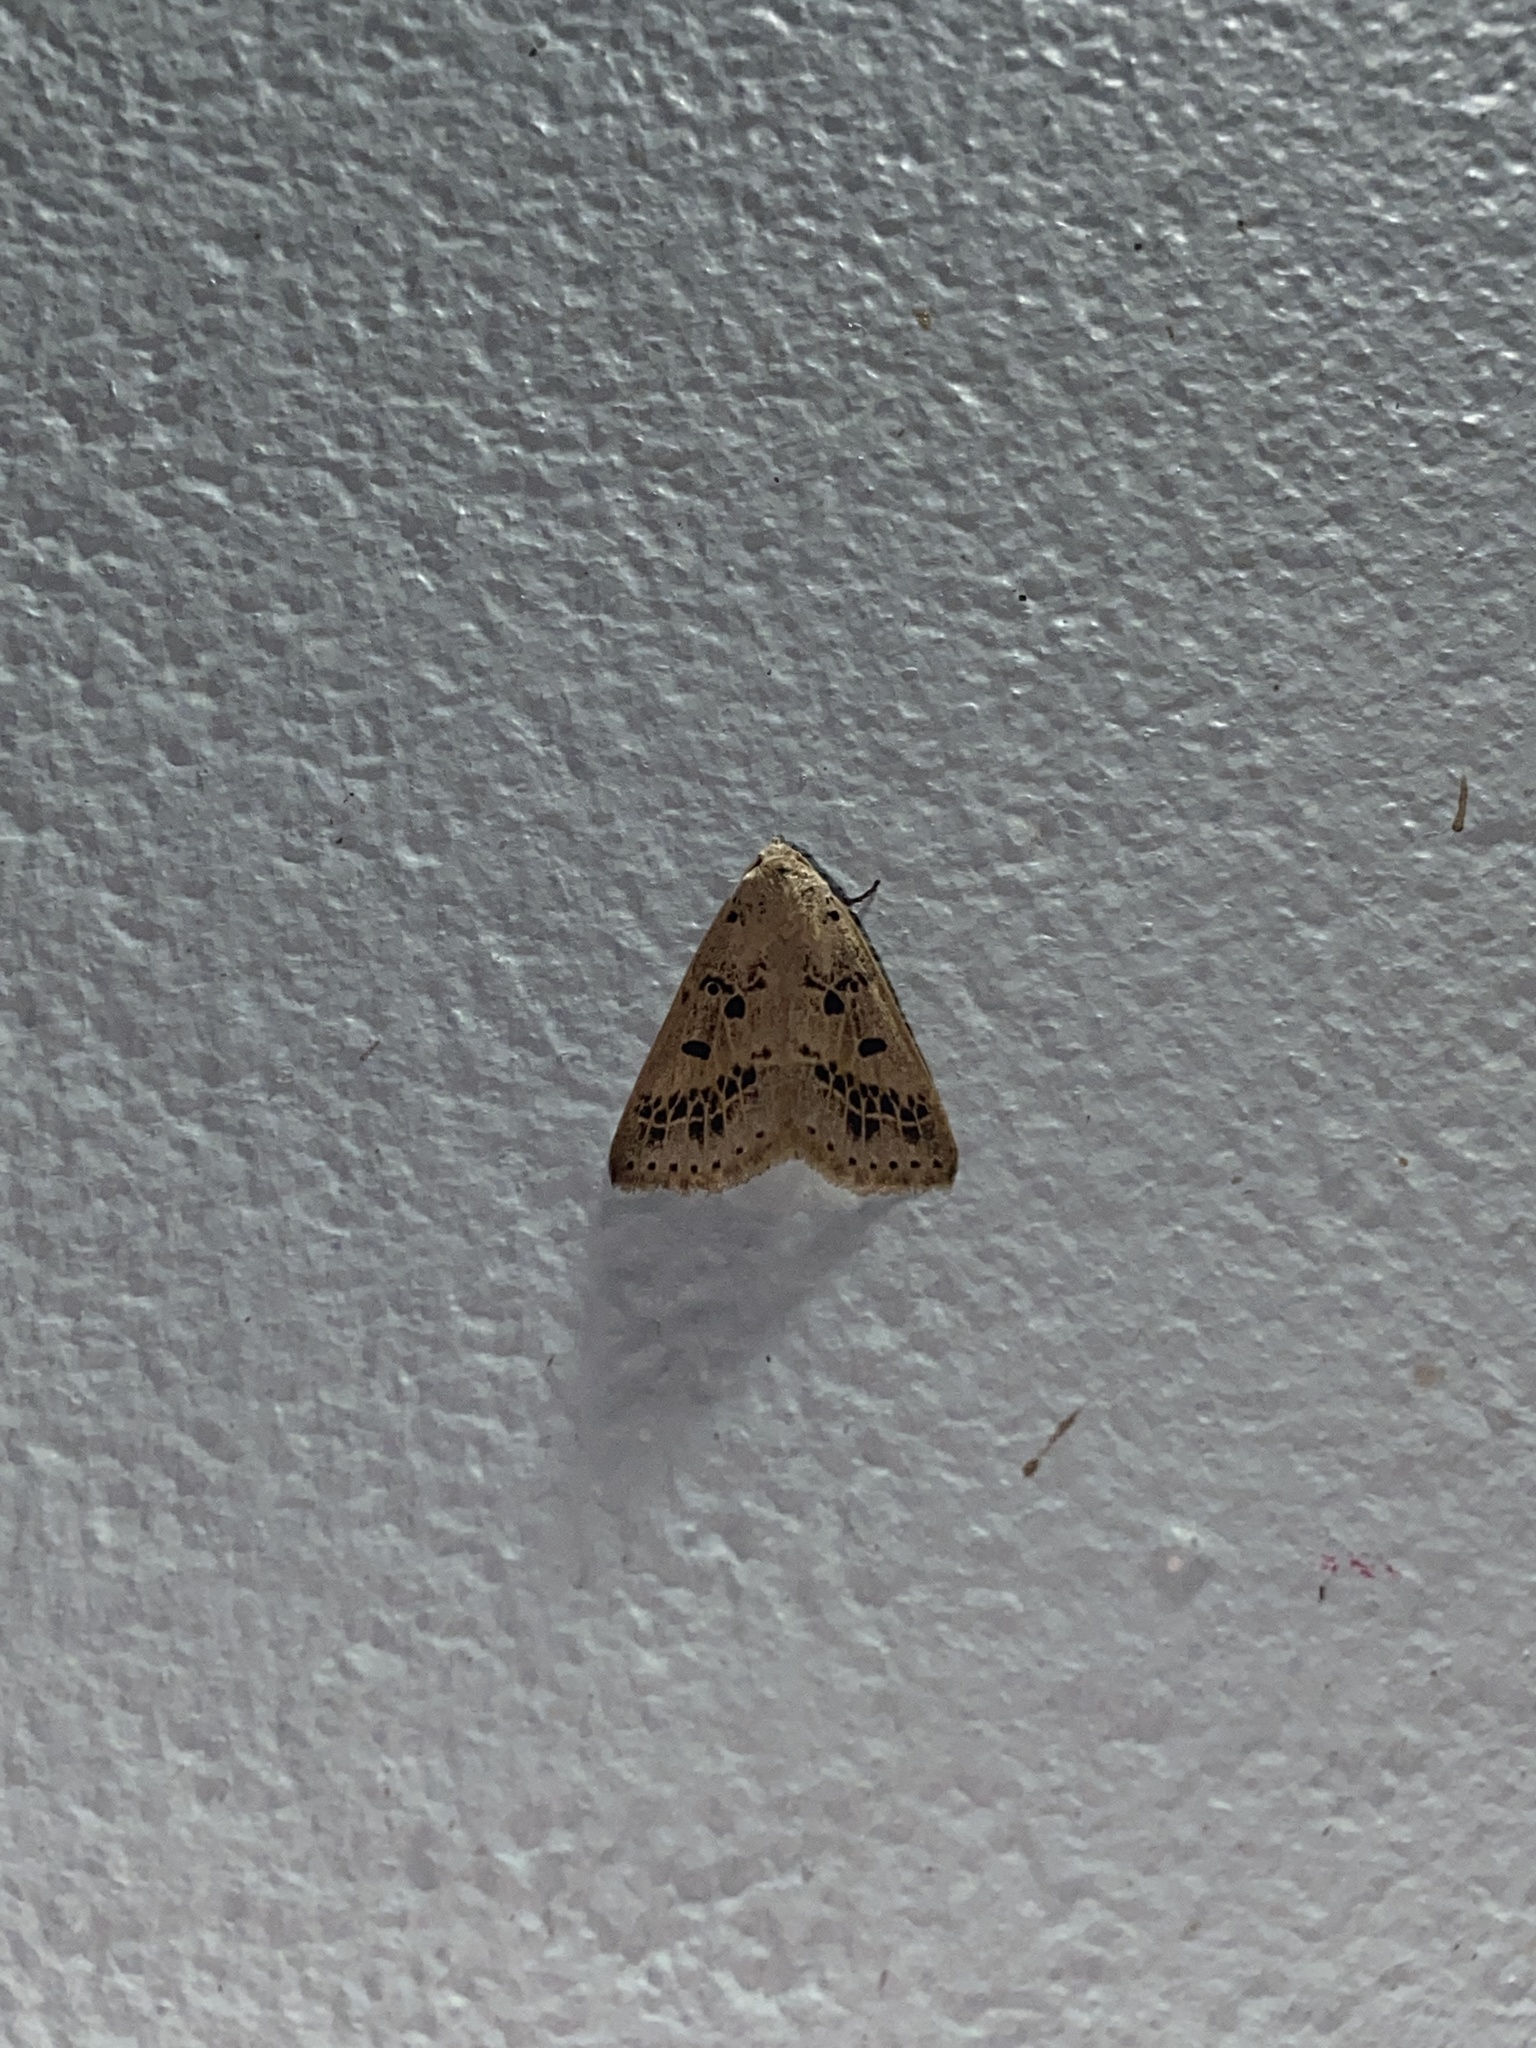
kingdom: Animalia
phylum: Arthropoda
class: Insecta
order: Lepidoptera
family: Erebidae
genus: Scolecocampa
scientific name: Scolecocampa Herminodes atrosignata
